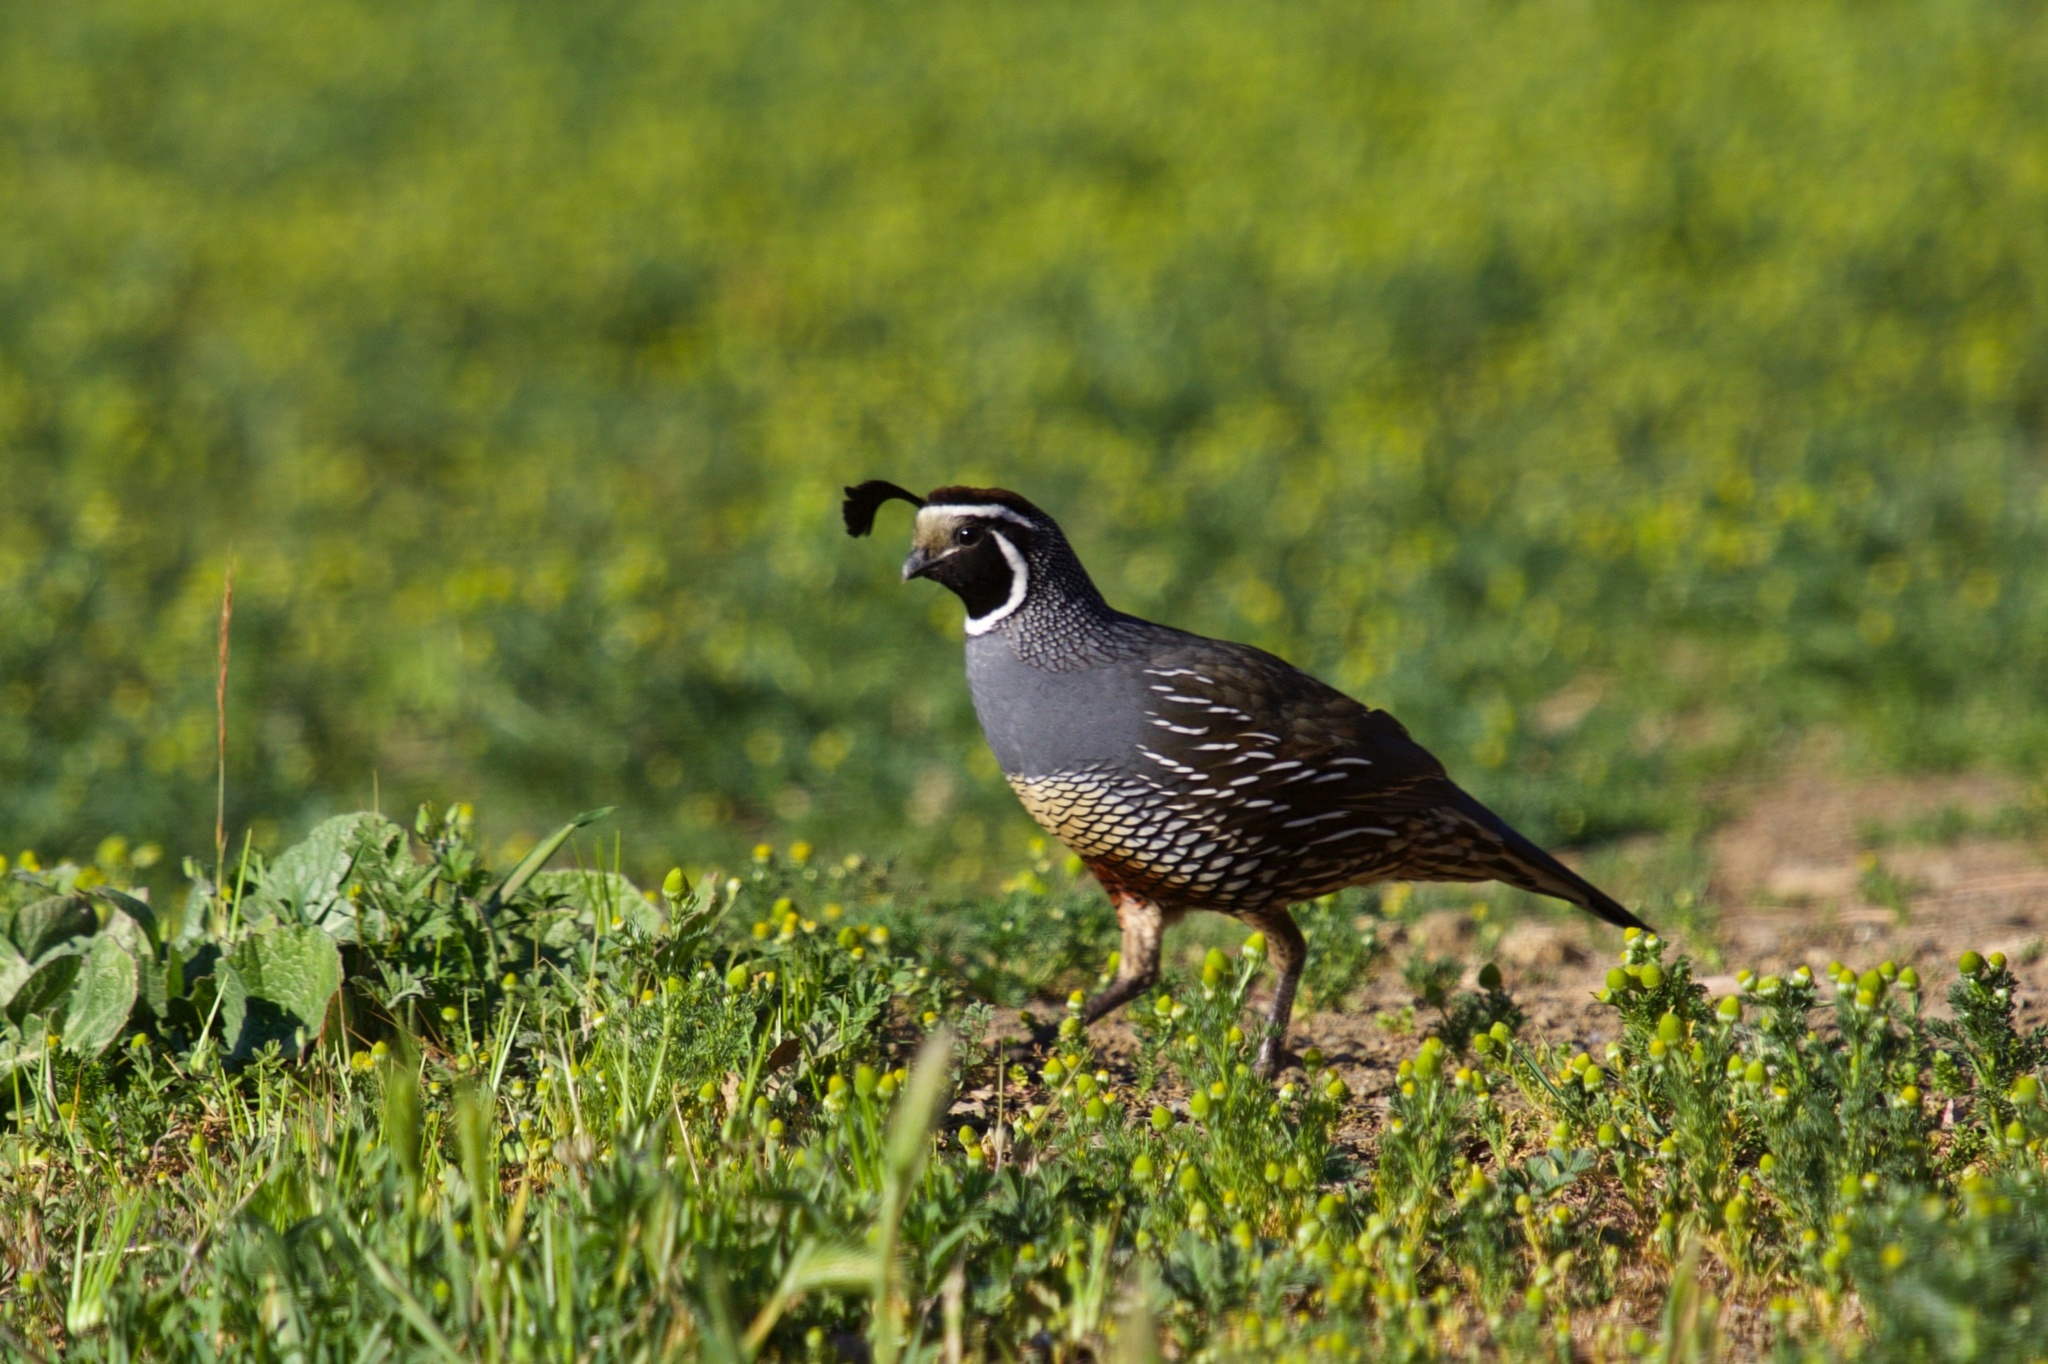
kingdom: Animalia
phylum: Chordata
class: Aves
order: Galliformes
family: Odontophoridae
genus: Callipepla
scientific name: Callipepla californica
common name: California quail
